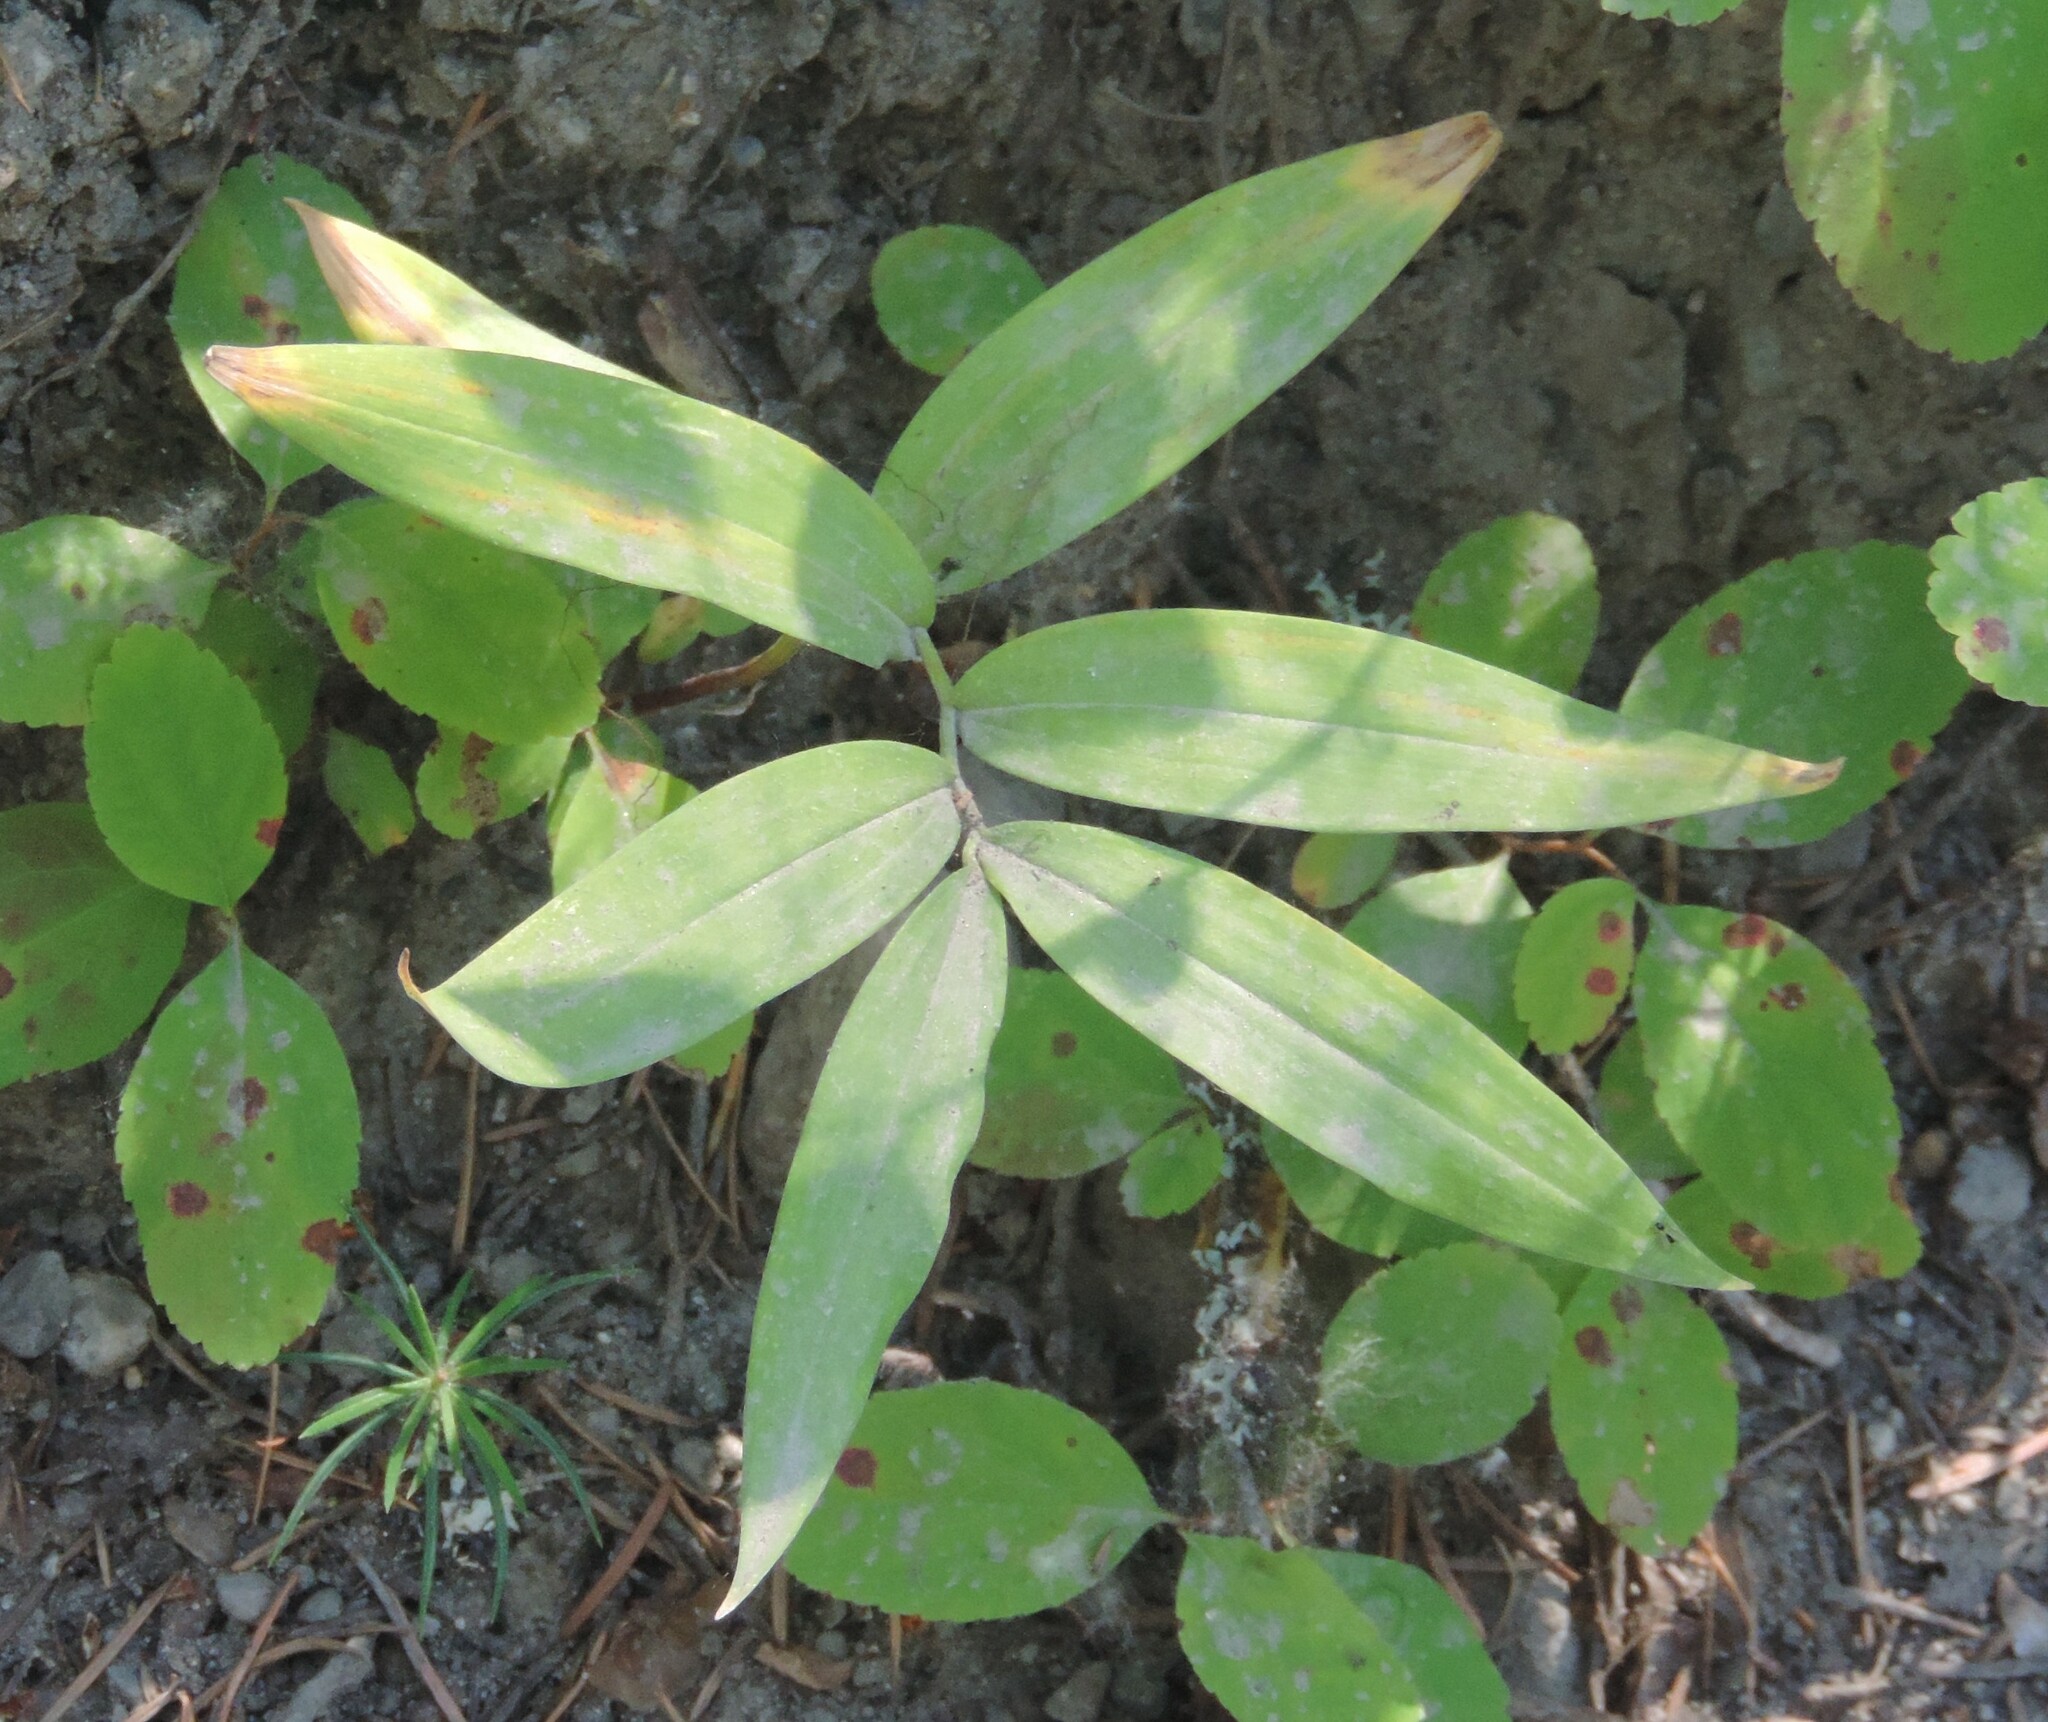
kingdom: Plantae
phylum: Tracheophyta
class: Liliopsida
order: Asparagales
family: Asparagaceae
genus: Maianthemum
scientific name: Maianthemum stellatum
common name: Little false solomon's seal
